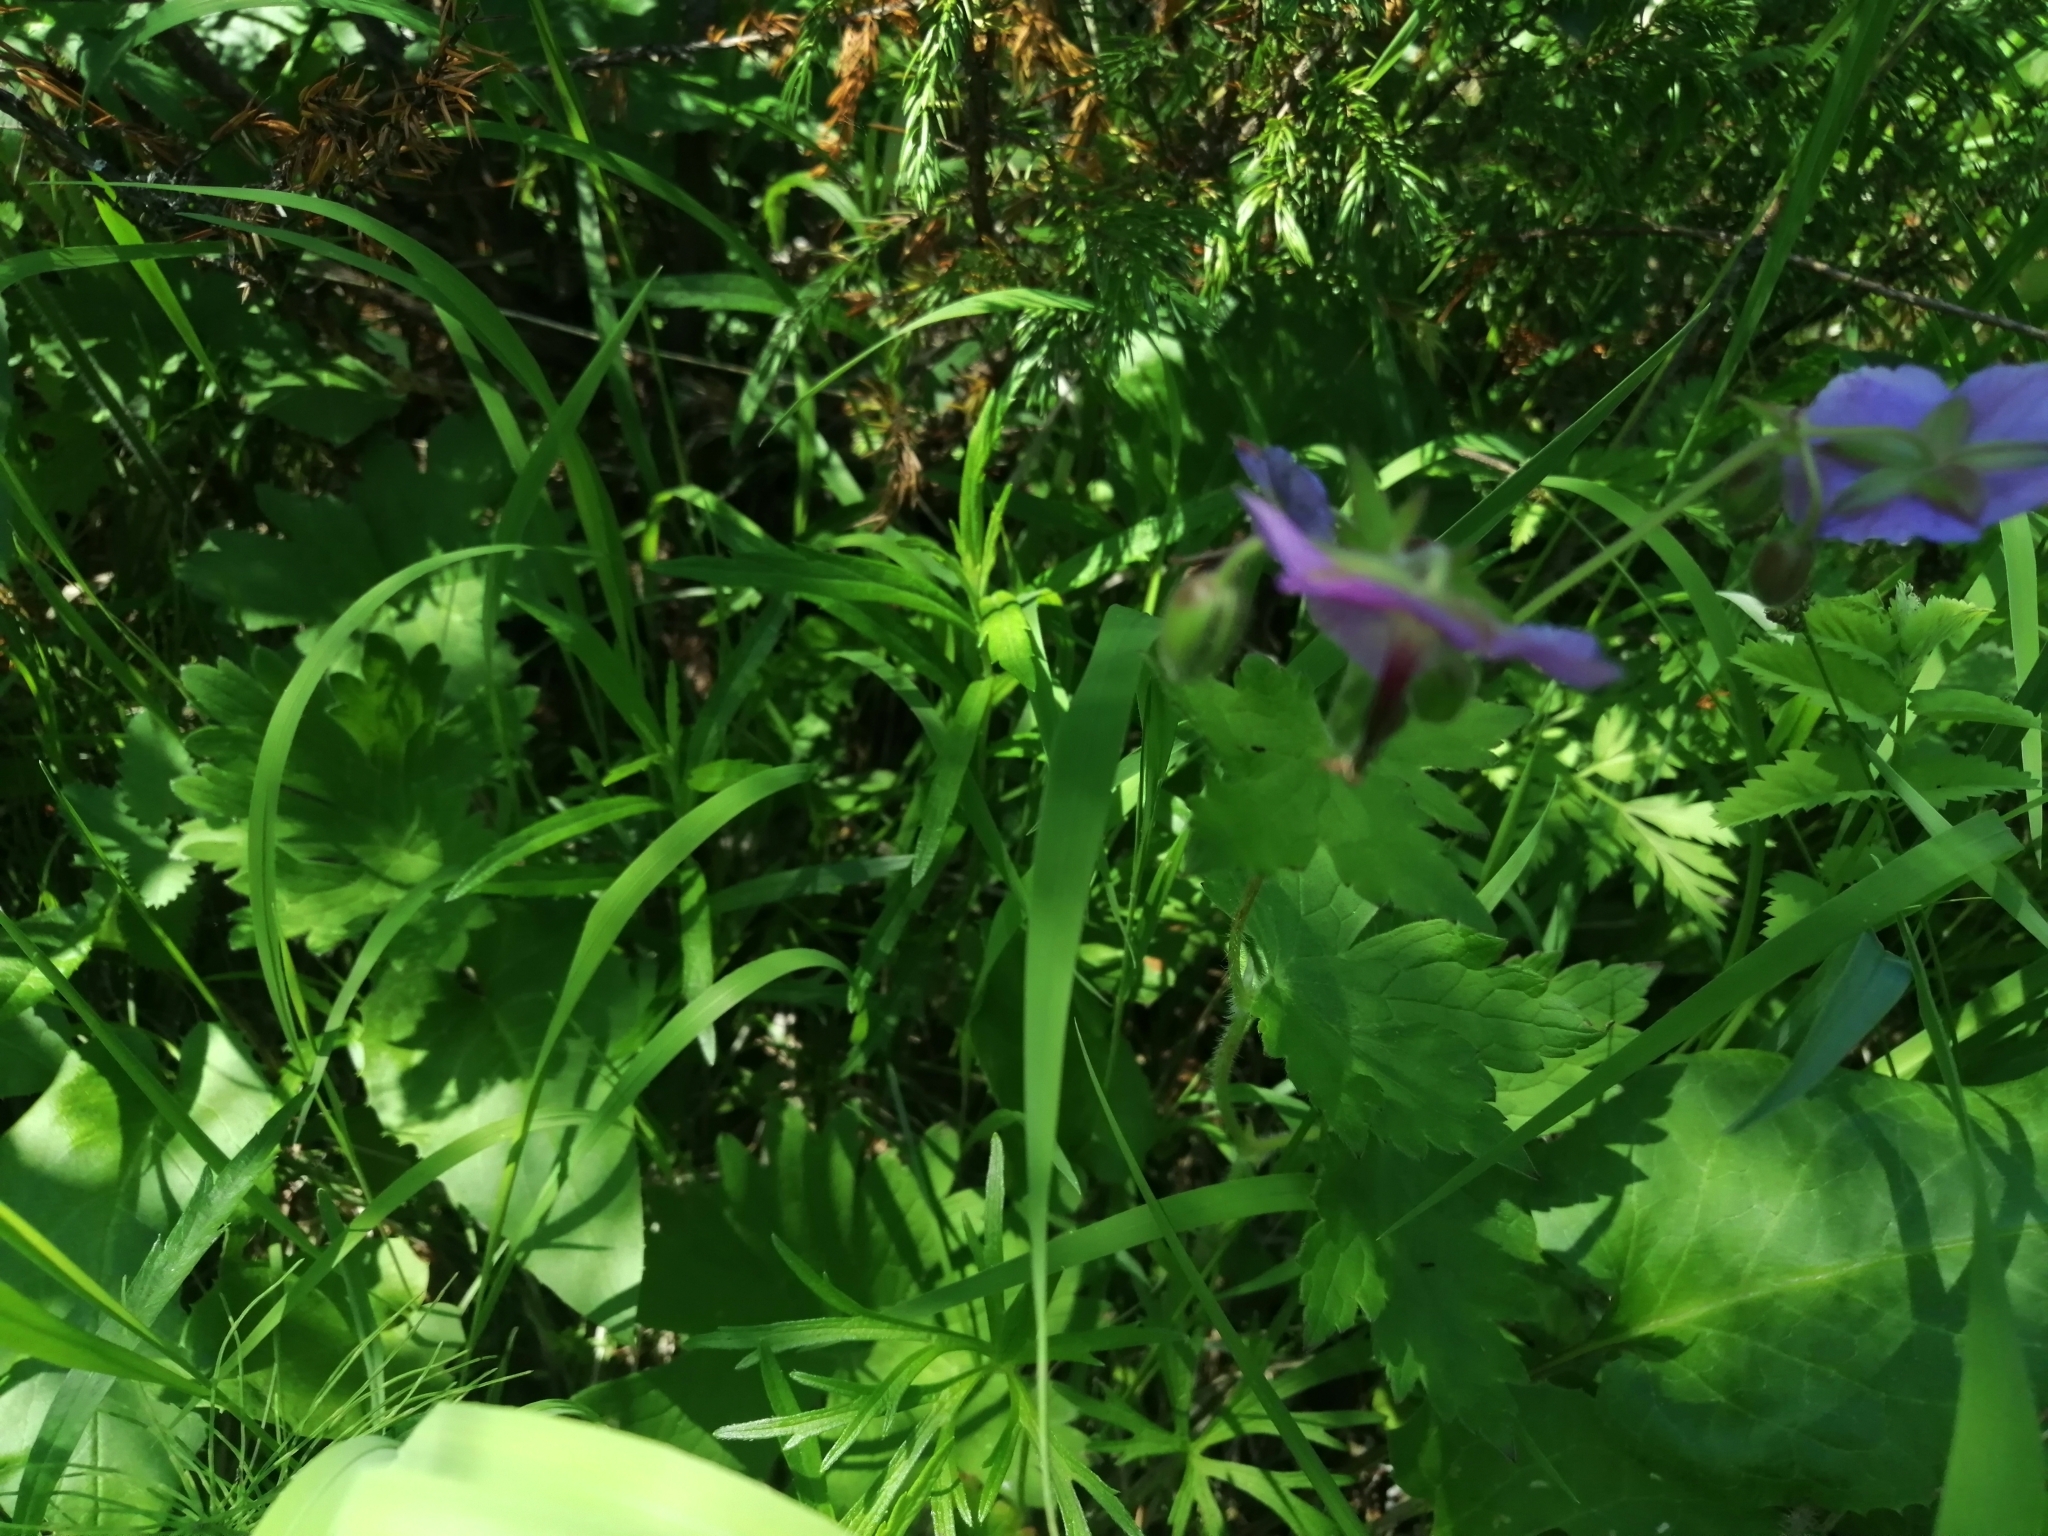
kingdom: Plantae
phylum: Tracheophyta
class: Magnoliopsida
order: Geraniales
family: Geraniaceae
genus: Geranium
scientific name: Geranium platyanthum
